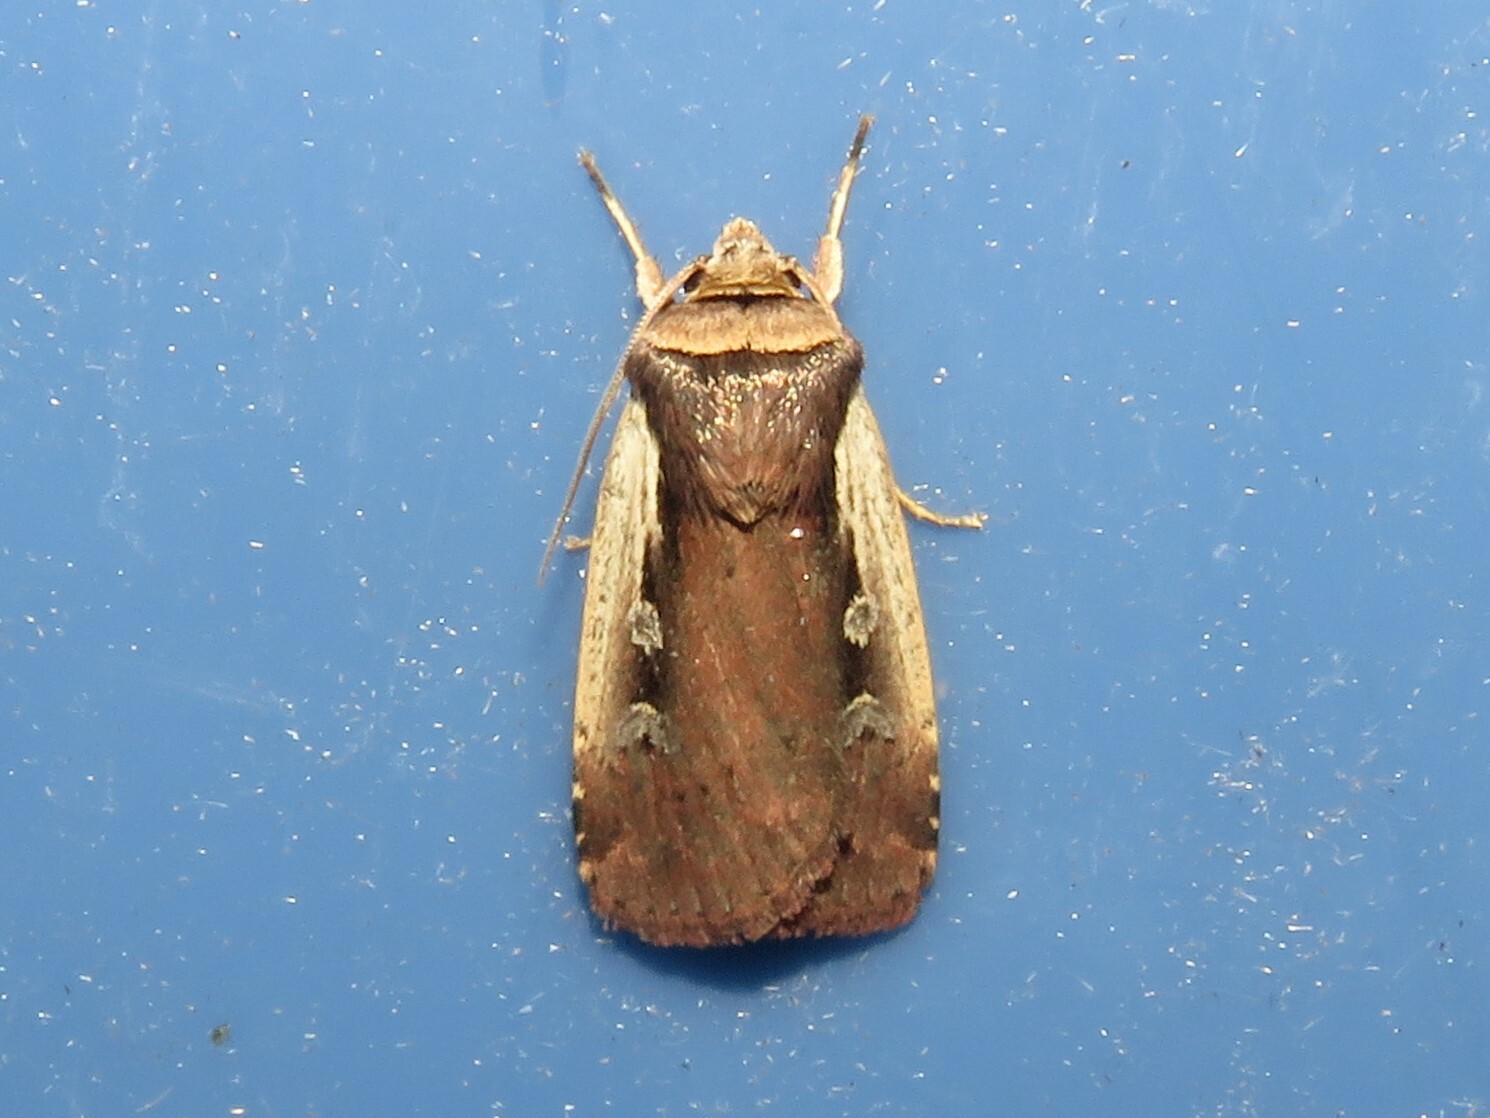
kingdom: Animalia
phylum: Arthropoda
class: Insecta
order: Lepidoptera
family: Noctuidae
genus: Ochropleura
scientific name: Ochropleura implecta
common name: Flame-shouldered dart
